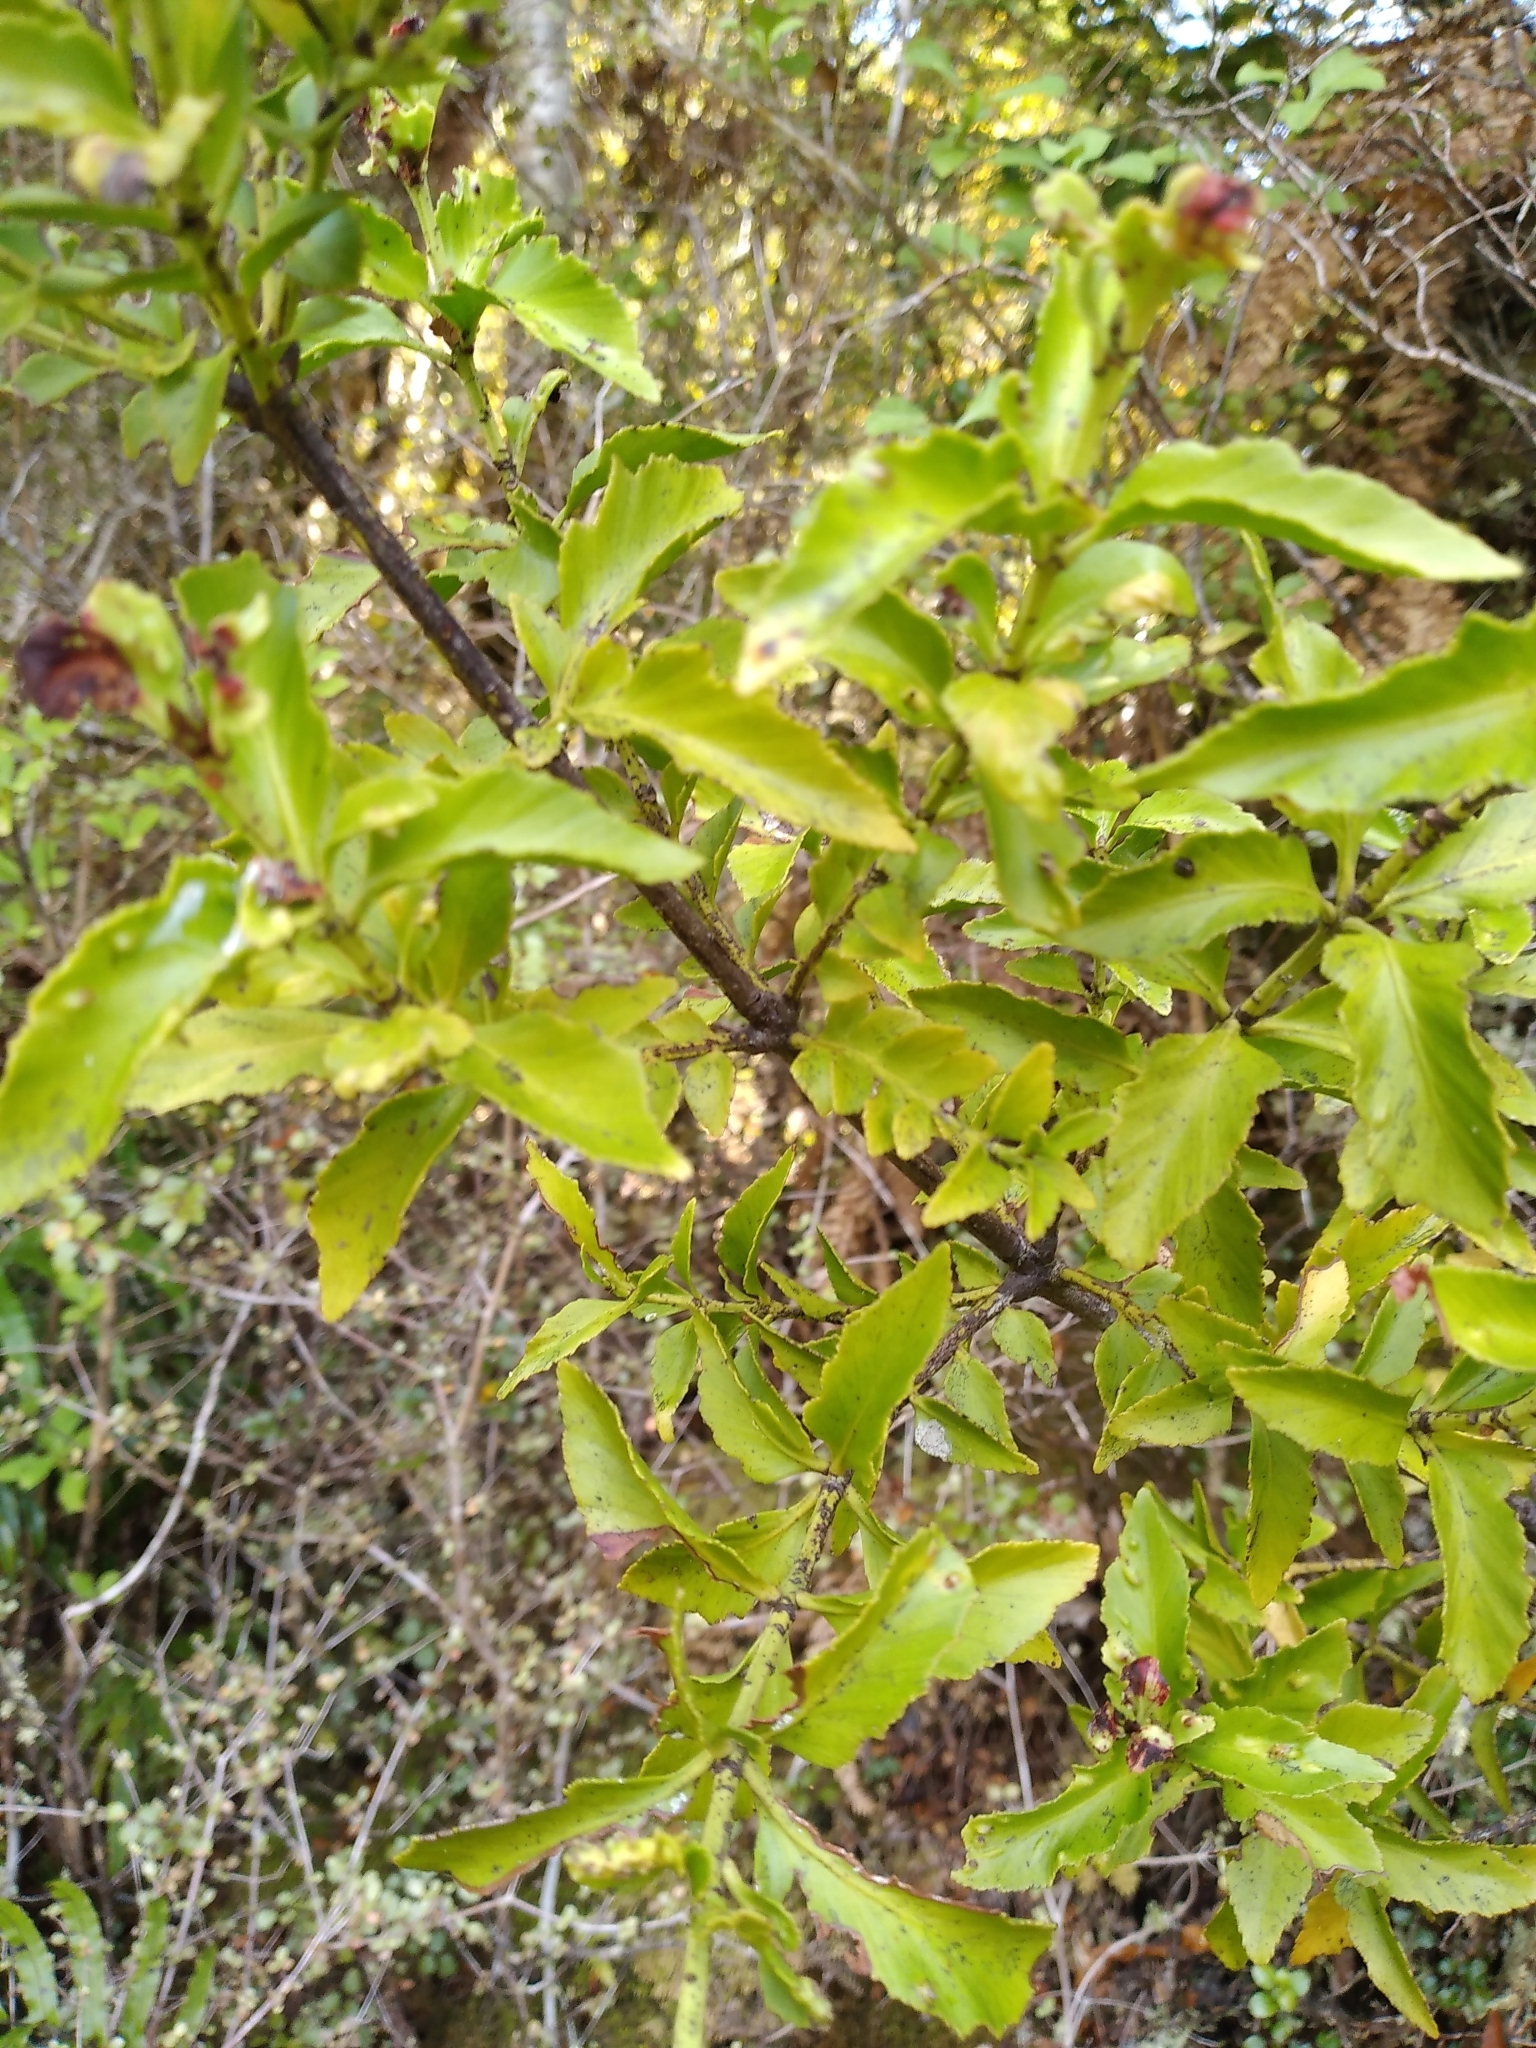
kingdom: Plantae
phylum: Tracheophyta
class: Pinopsida
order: Pinales
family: Phyllocladaceae
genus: Phyllocladus
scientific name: Phyllocladus trichomanoides
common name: Celery pine
